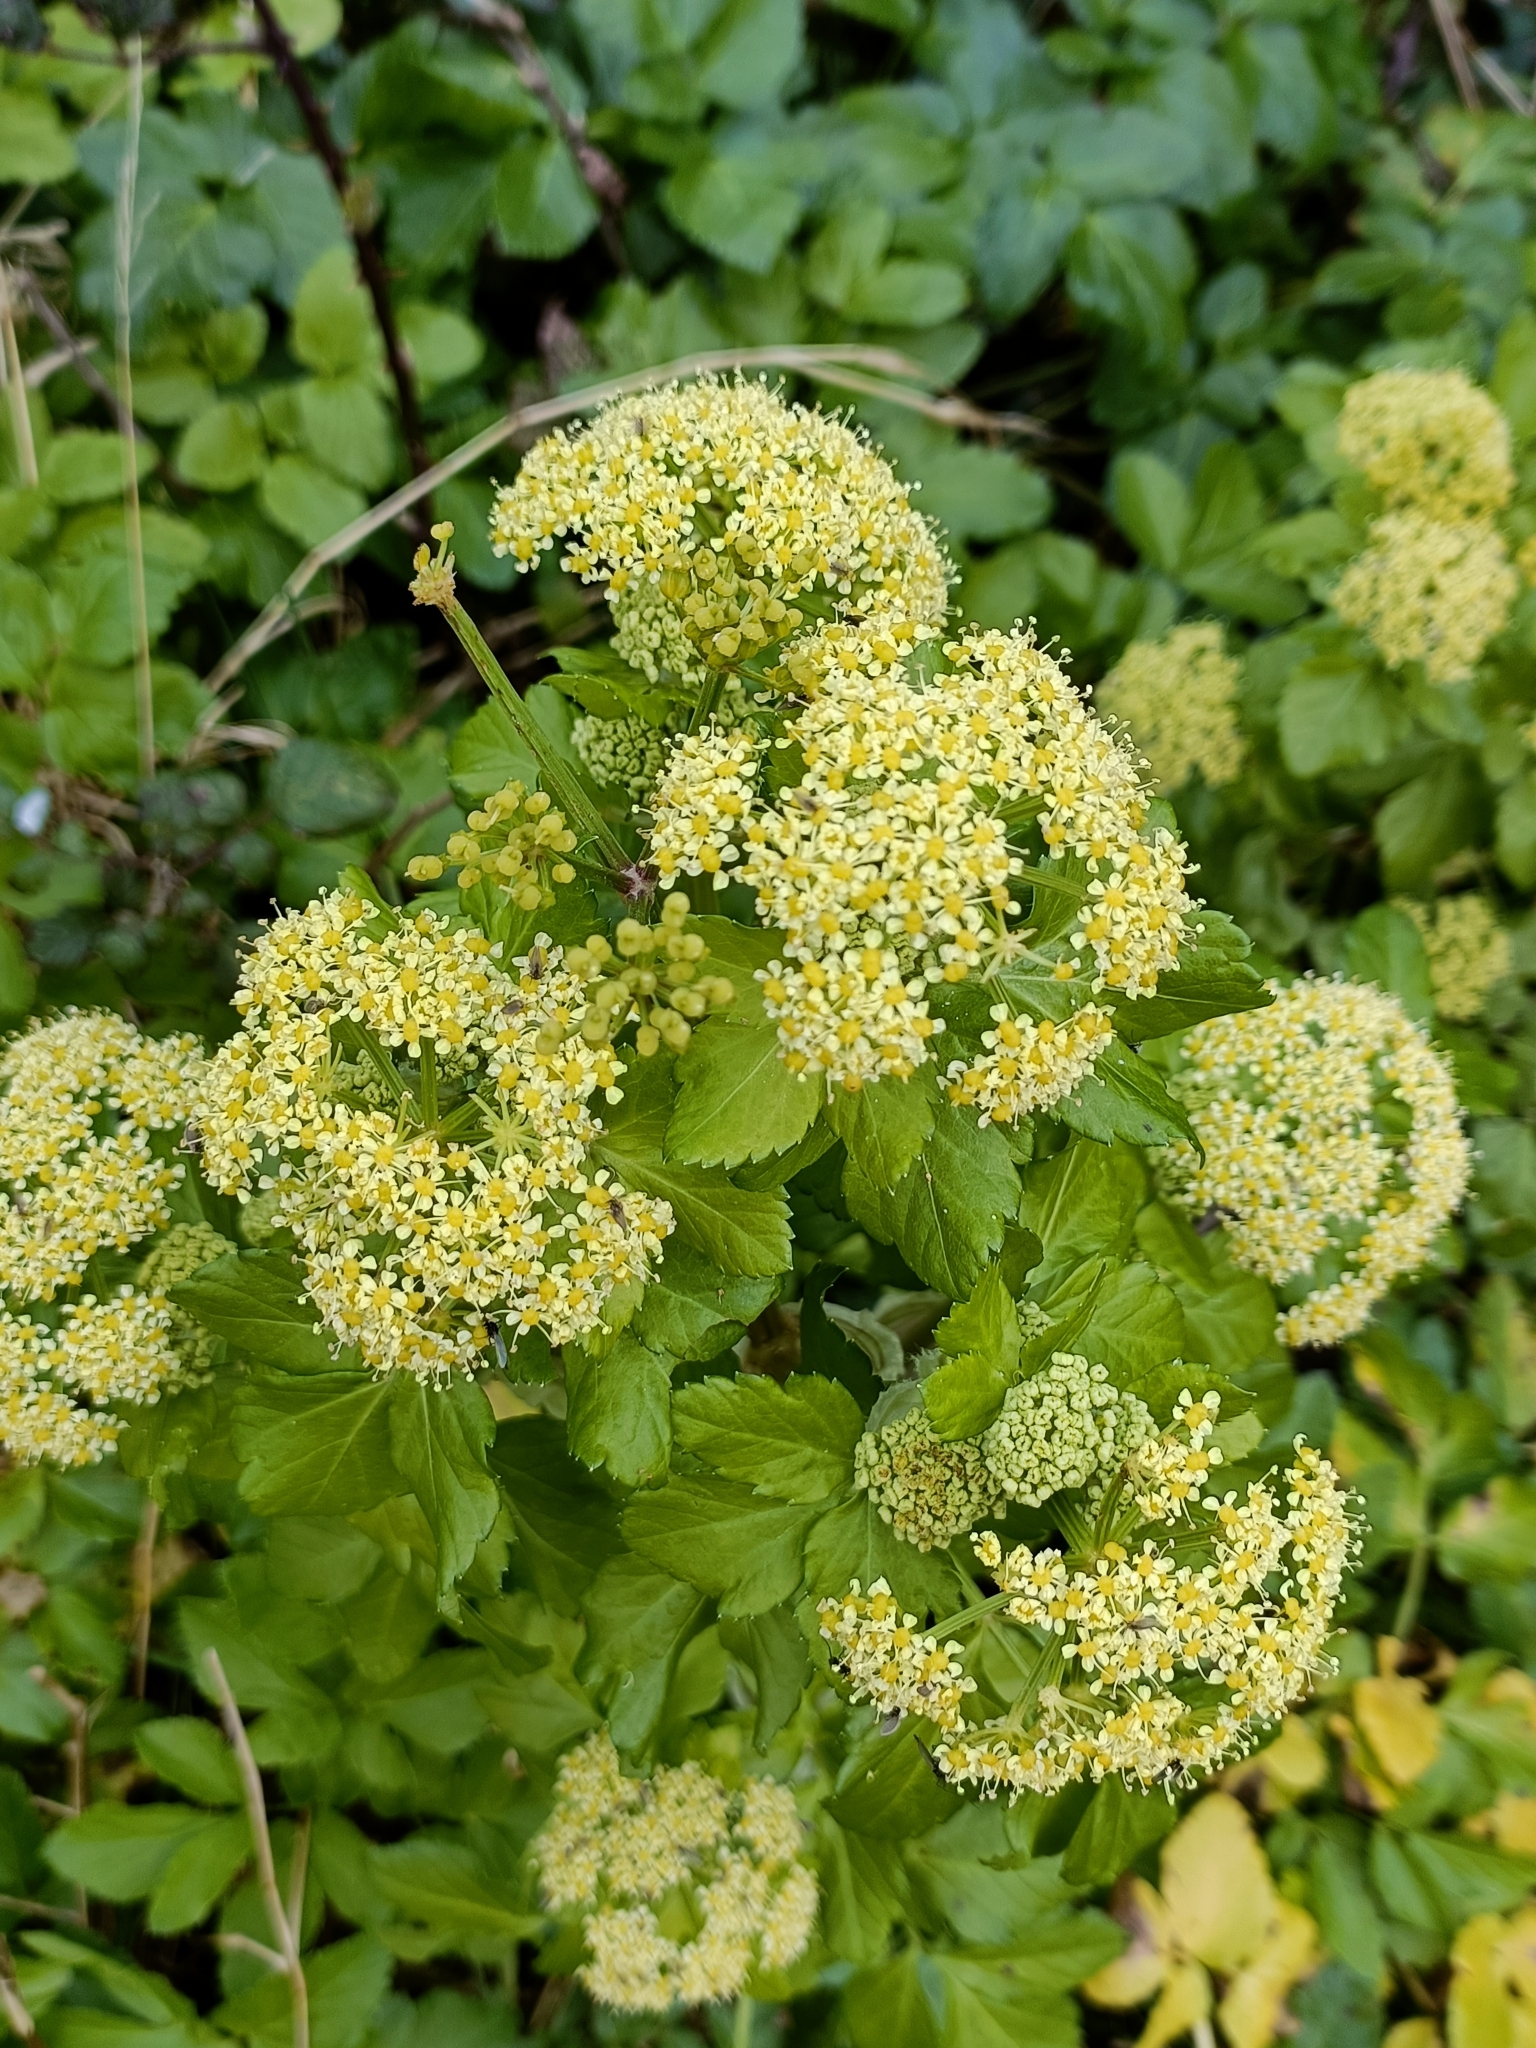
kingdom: Plantae
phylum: Tracheophyta
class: Magnoliopsida
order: Apiales
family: Apiaceae
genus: Smyrnium
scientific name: Smyrnium olusatrum
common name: Alexanders
